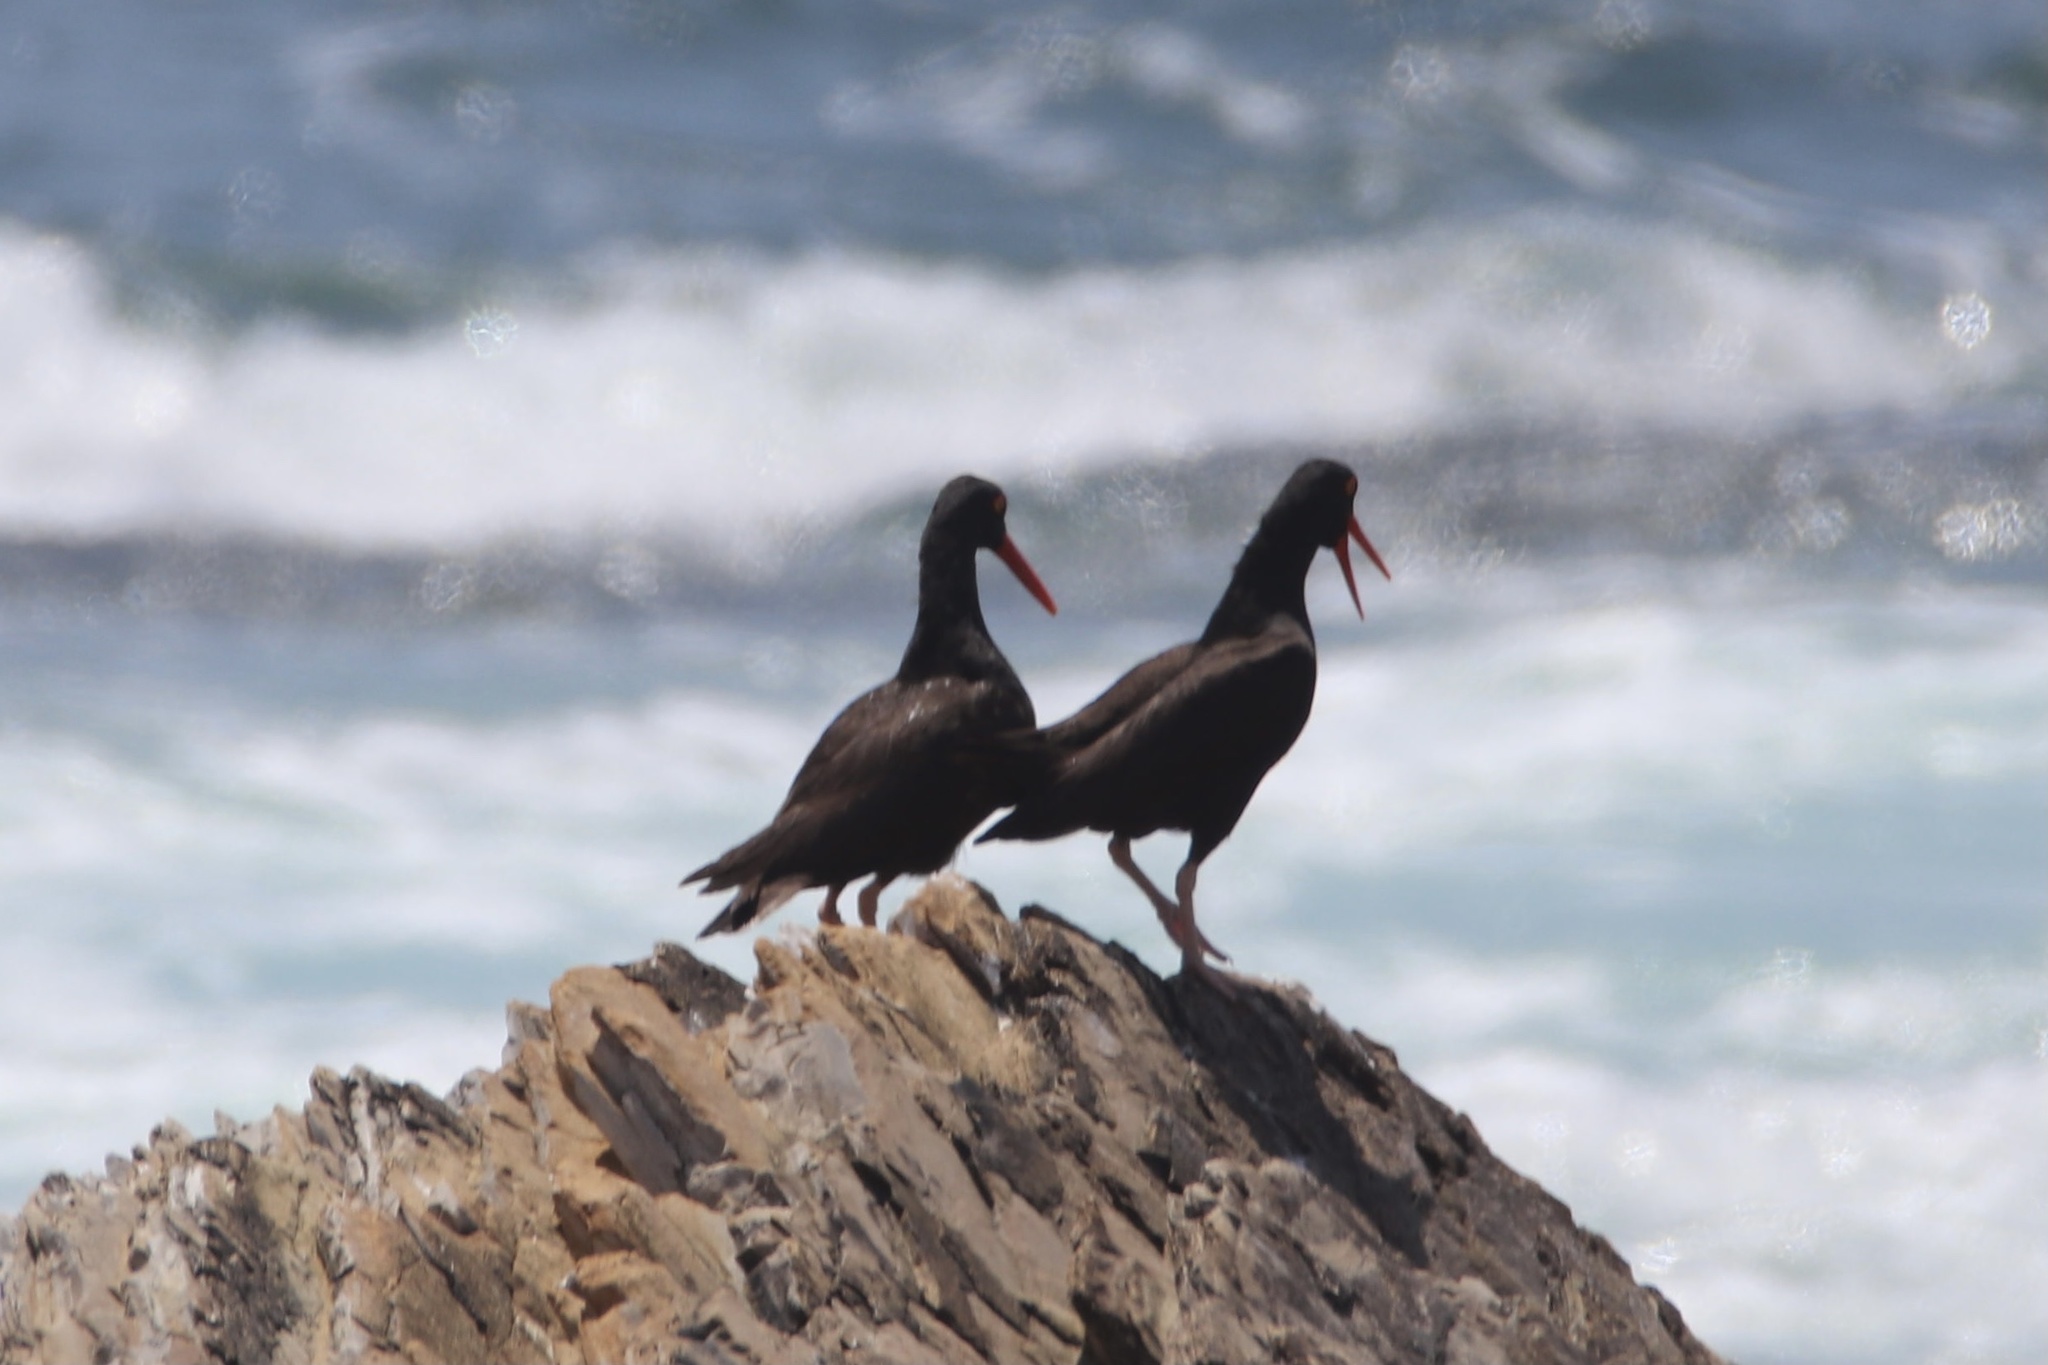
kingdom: Animalia
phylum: Chordata
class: Aves
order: Charadriiformes
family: Haematopodidae
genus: Haematopus
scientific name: Haematopus bachmani
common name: Black oystercatcher
